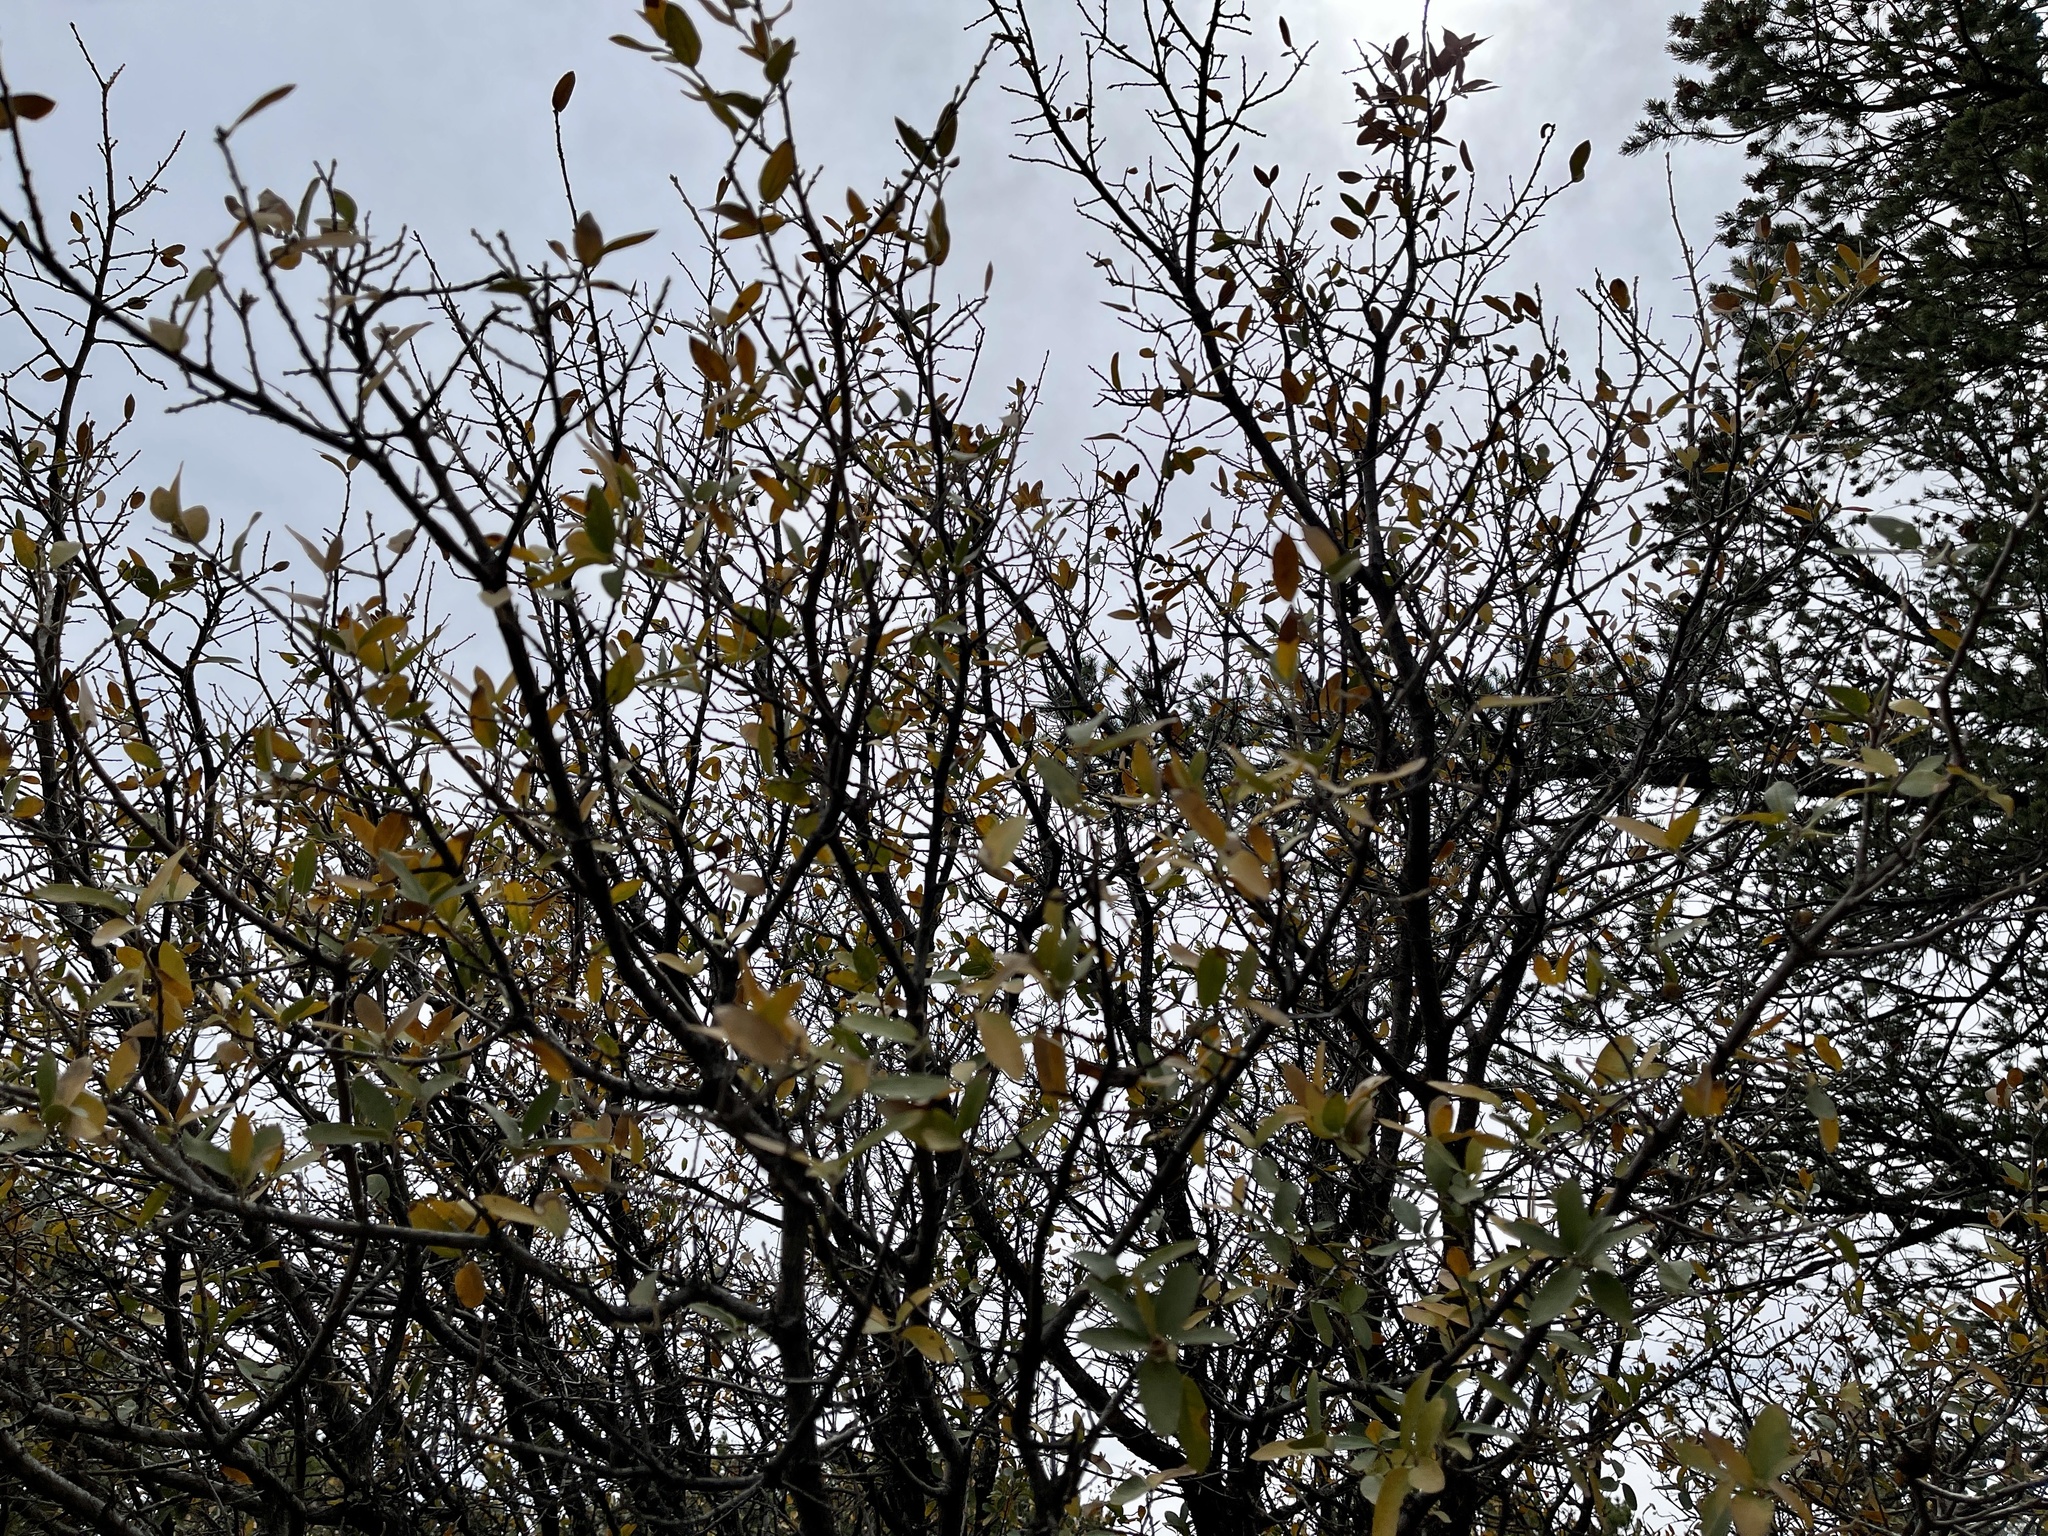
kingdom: Plantae
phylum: Tracheophyta
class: Magnoliopsida
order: Fagales
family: Fagaceae
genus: Quercus
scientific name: Quercus arizonica
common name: Arizona white oak
